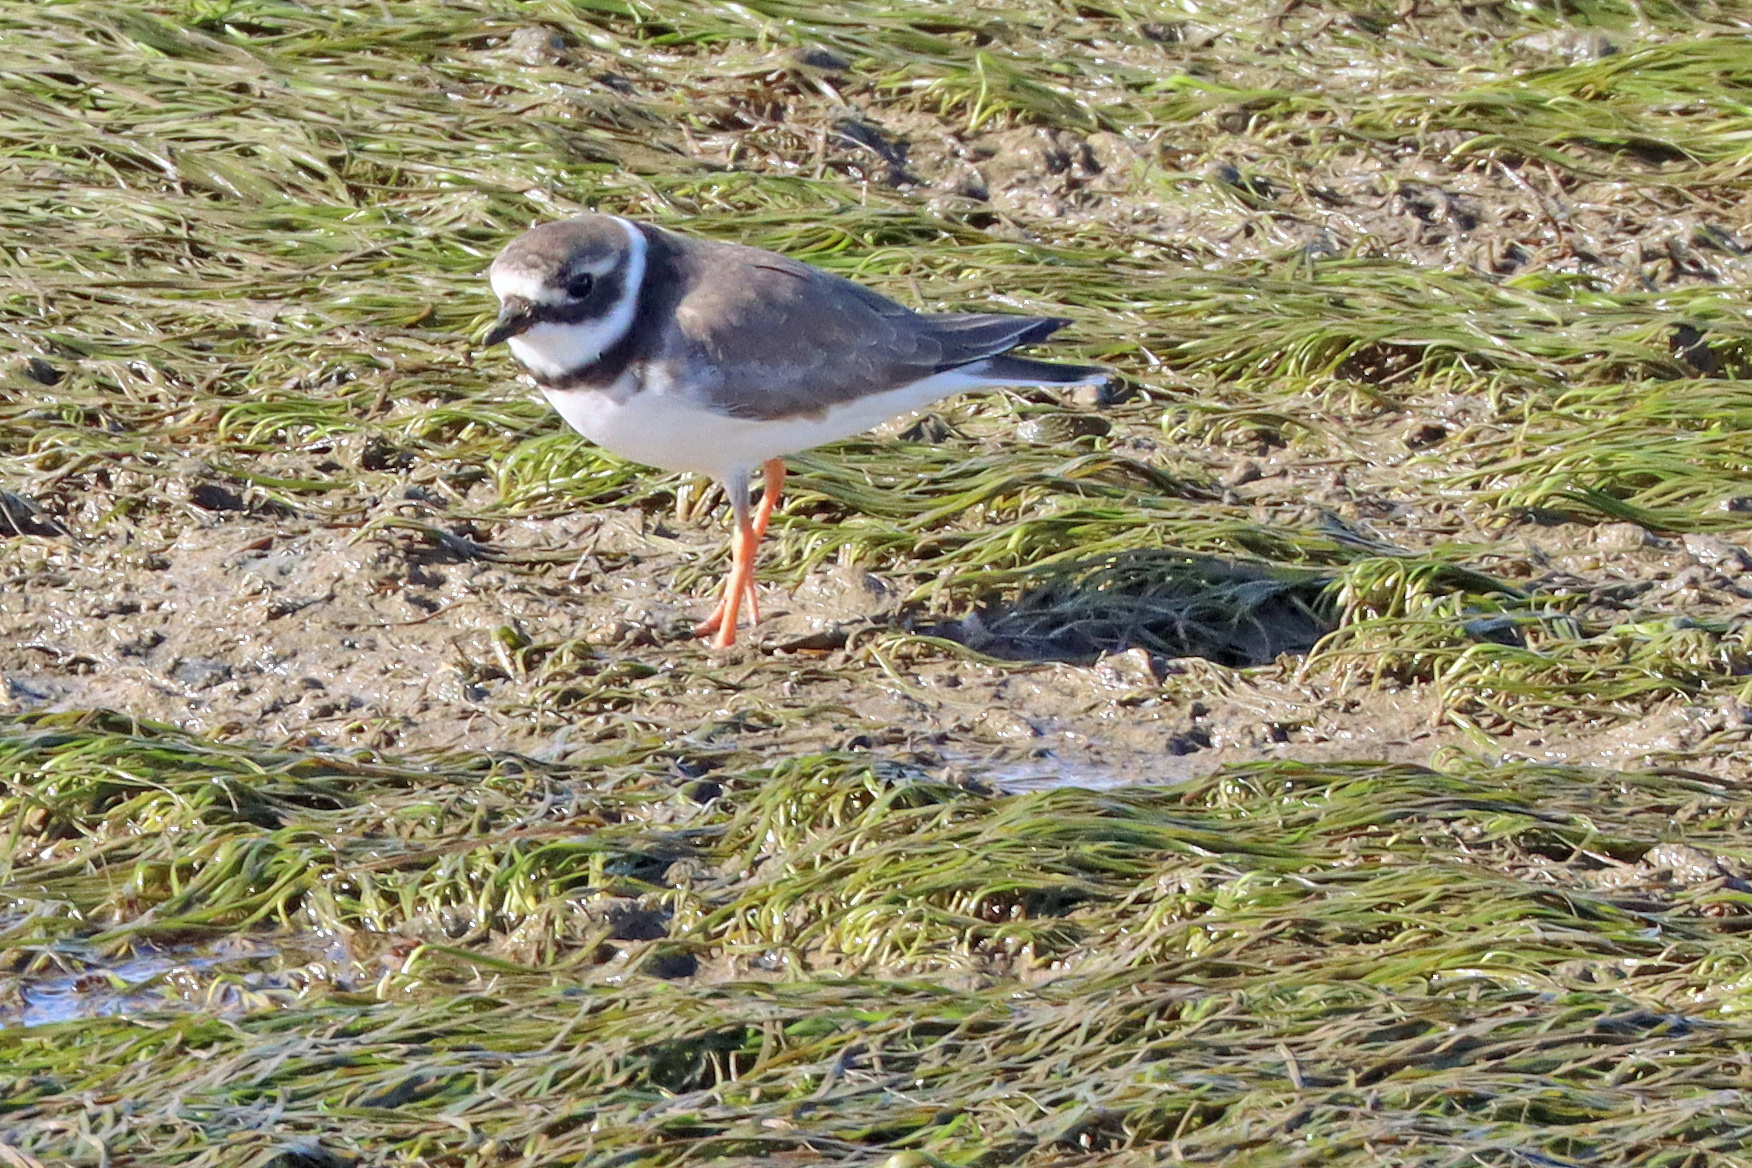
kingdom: Animalia
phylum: Chordata
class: Aves
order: Charadriiformes
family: Charadriidae
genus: Charadrius
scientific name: Charadrius hiaticula
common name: Common ringed plover
